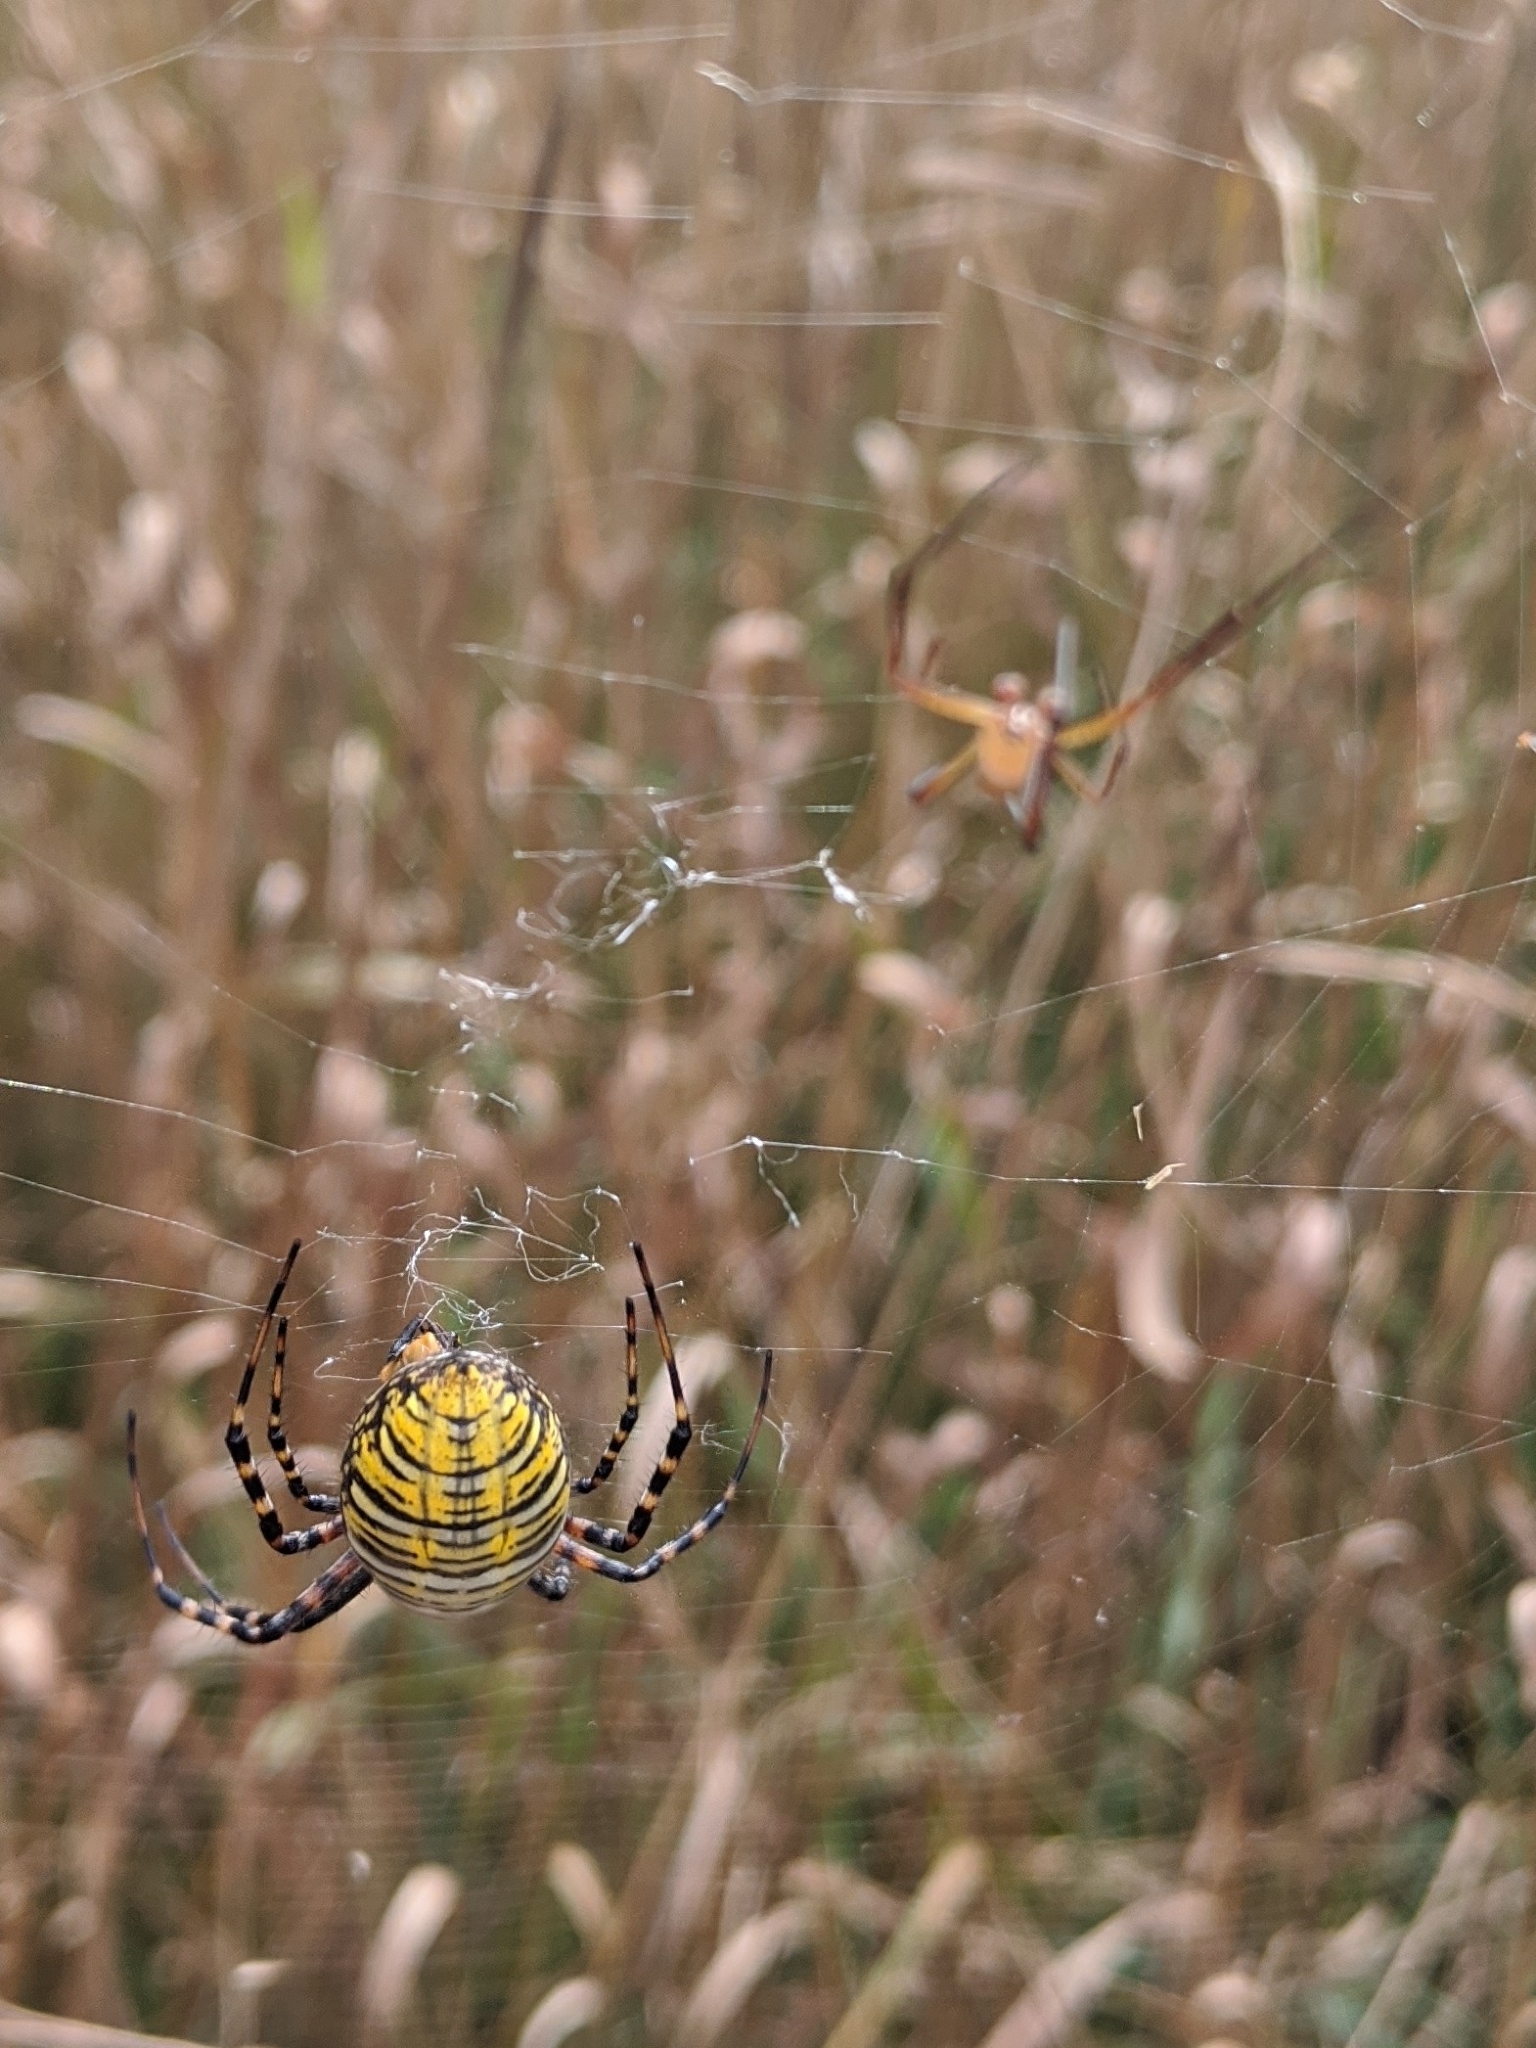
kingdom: Animalia
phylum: Arthropoda
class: Arachnida
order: Araneae
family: Araneidae
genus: Argiope
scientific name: Argiope trifasciata
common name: Banded garden spider
